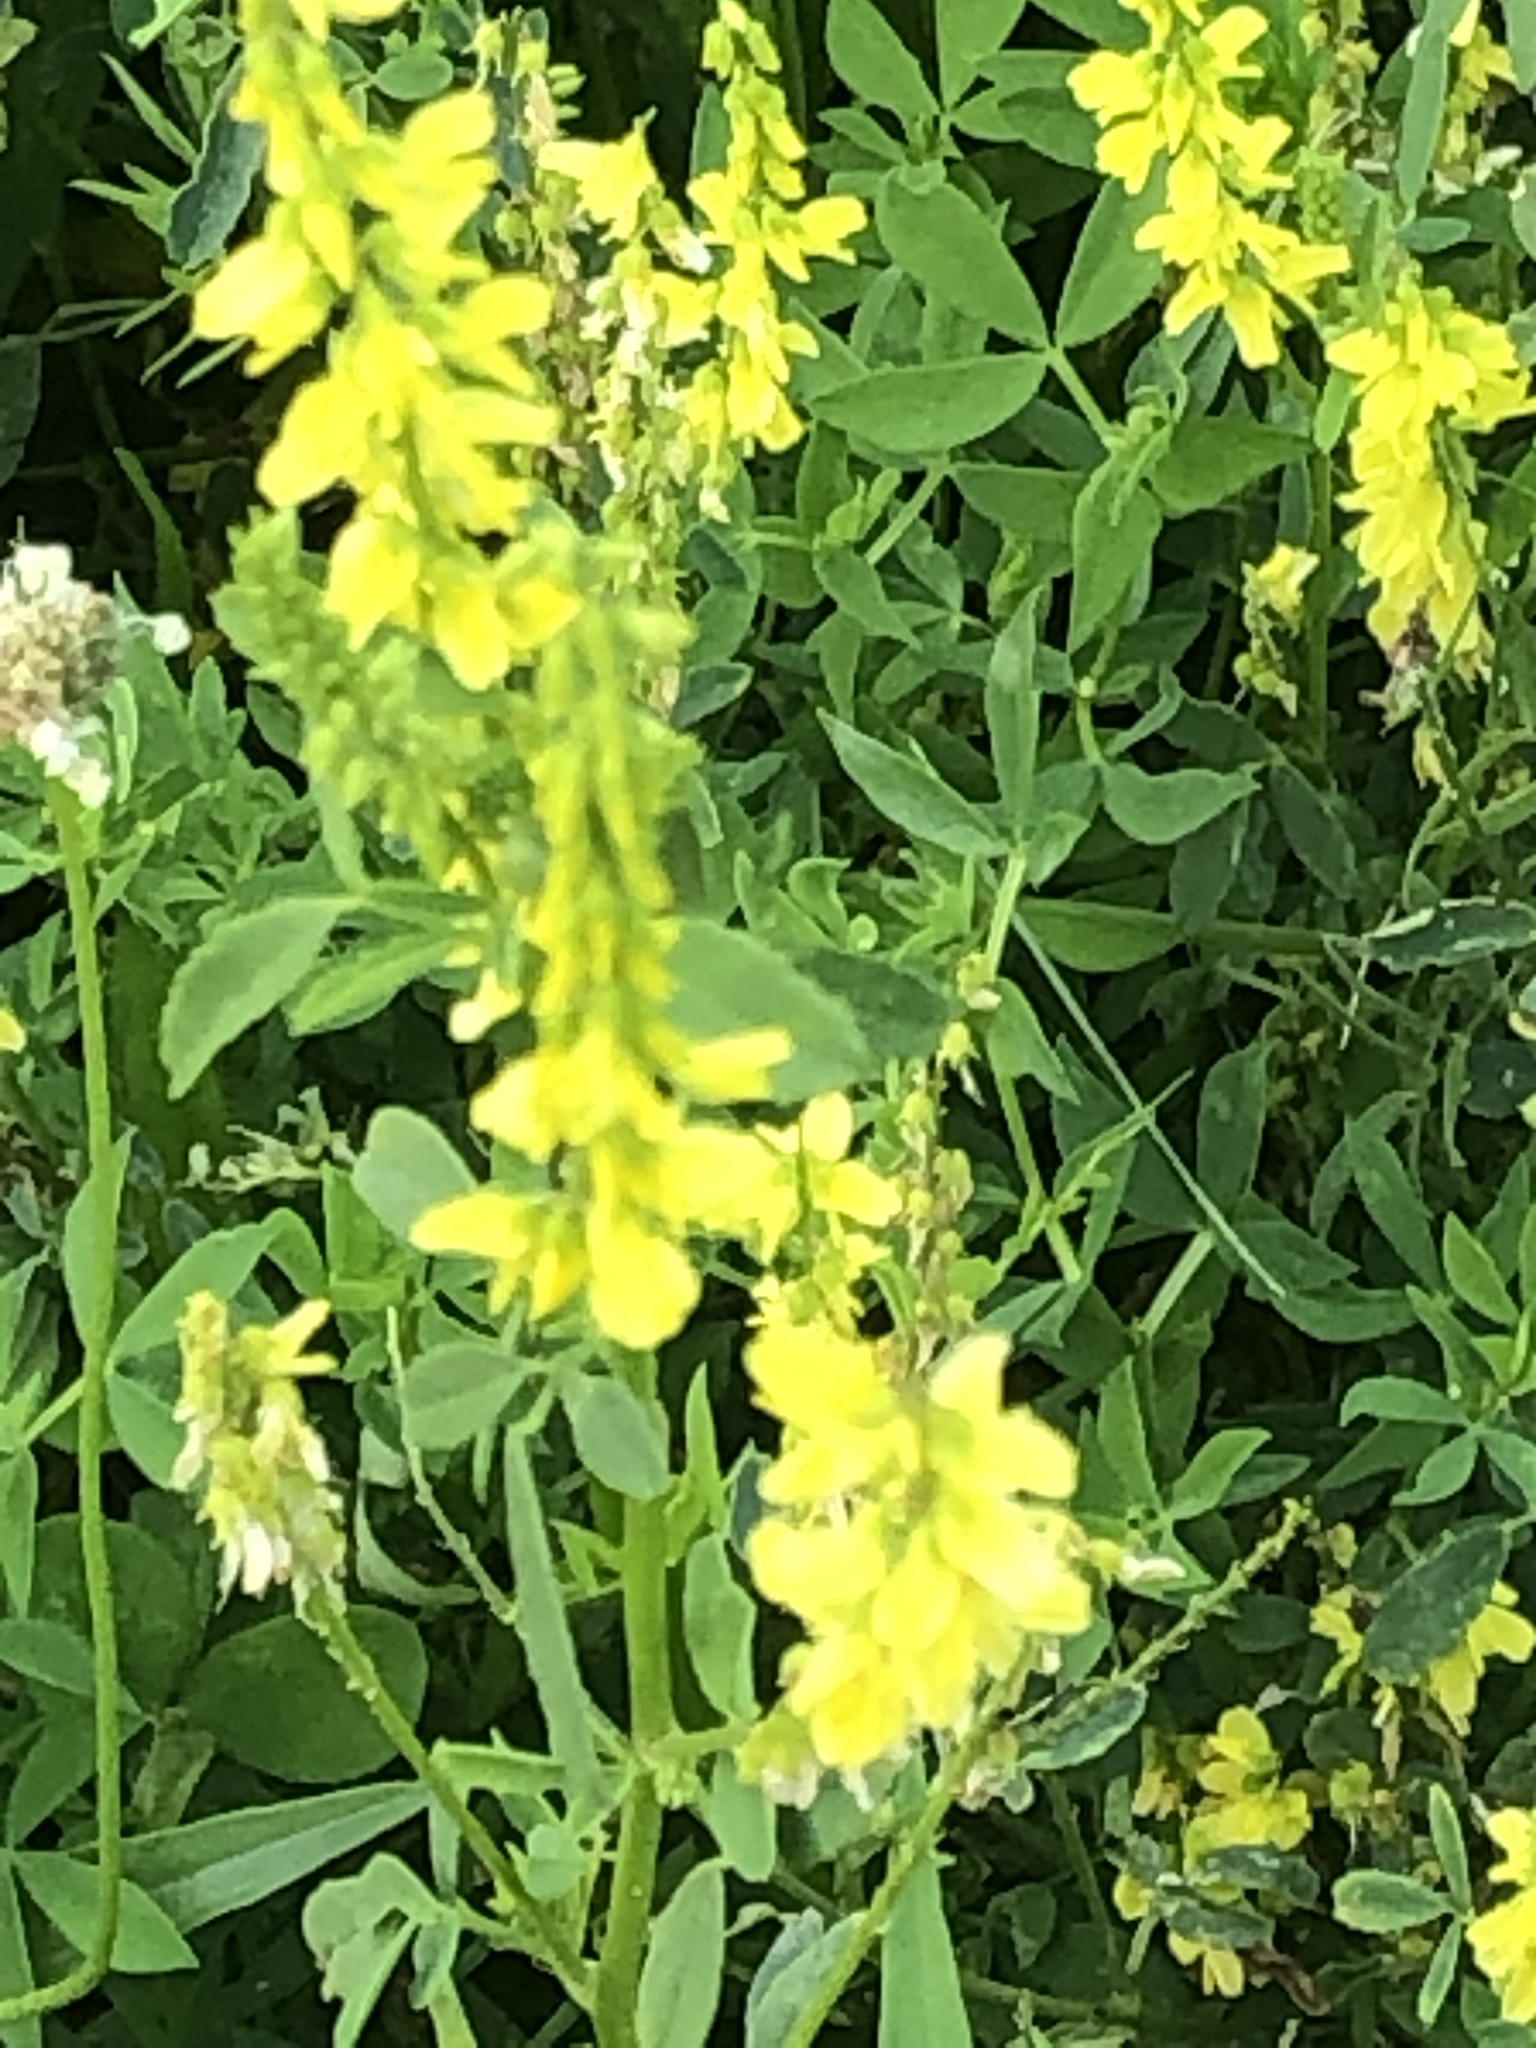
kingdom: Plantae
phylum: Tracheophyta
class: Magnoliopsida
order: Fabales
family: Fabaceae
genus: Melilotus
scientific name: Melilotus officinalis
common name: Sweetclover
